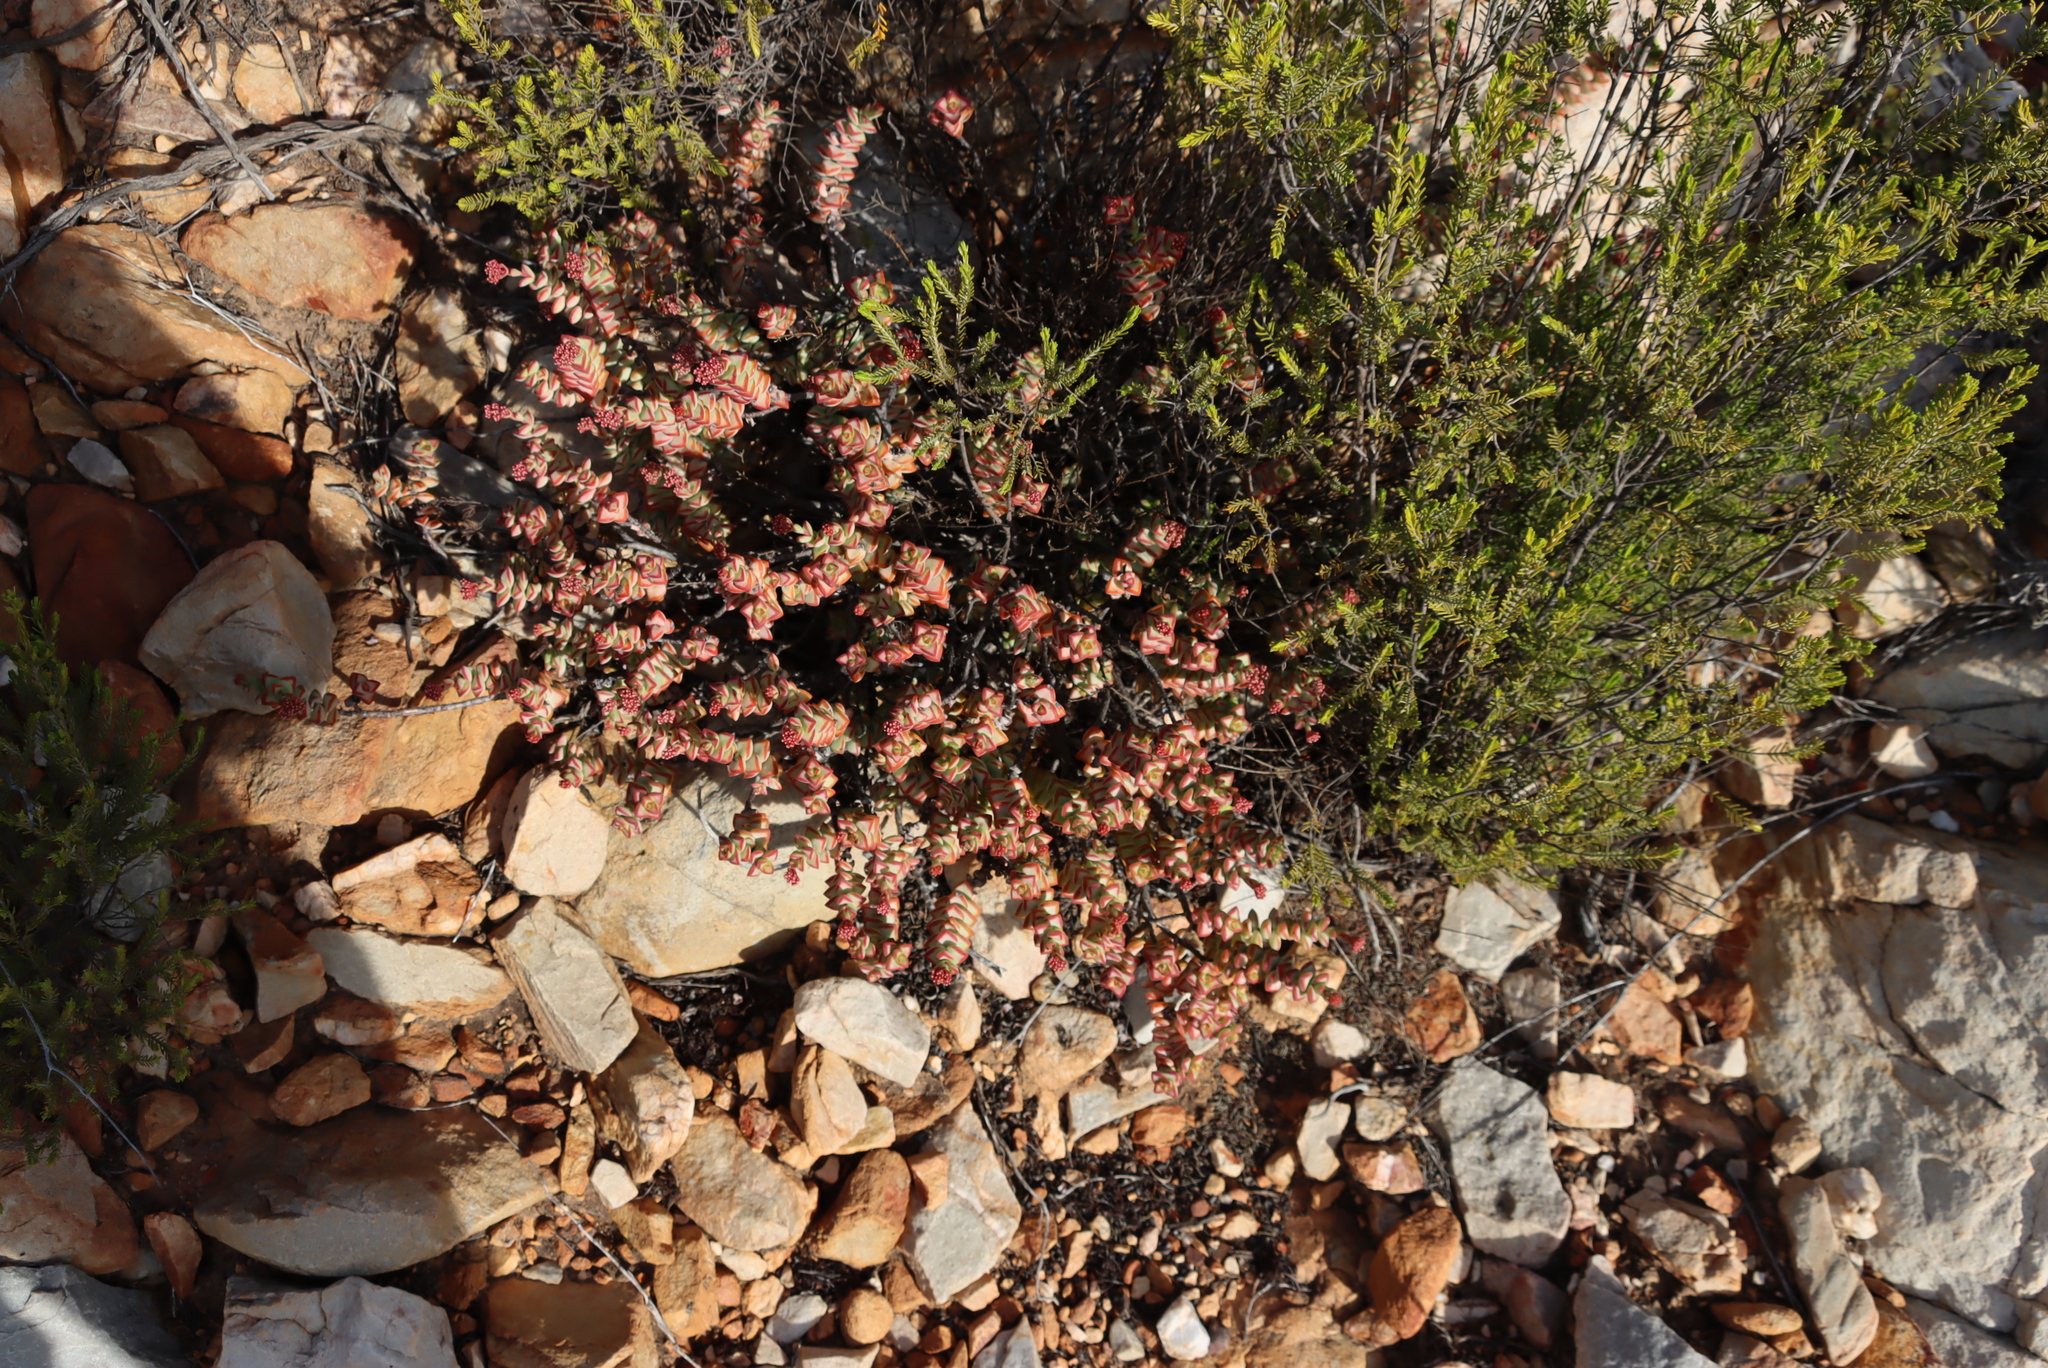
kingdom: Plantae
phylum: Tracheophyta
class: Magnoliopsida
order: Saxifragales
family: Crassulaceae
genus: Crassula
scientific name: Crassula rupestris
